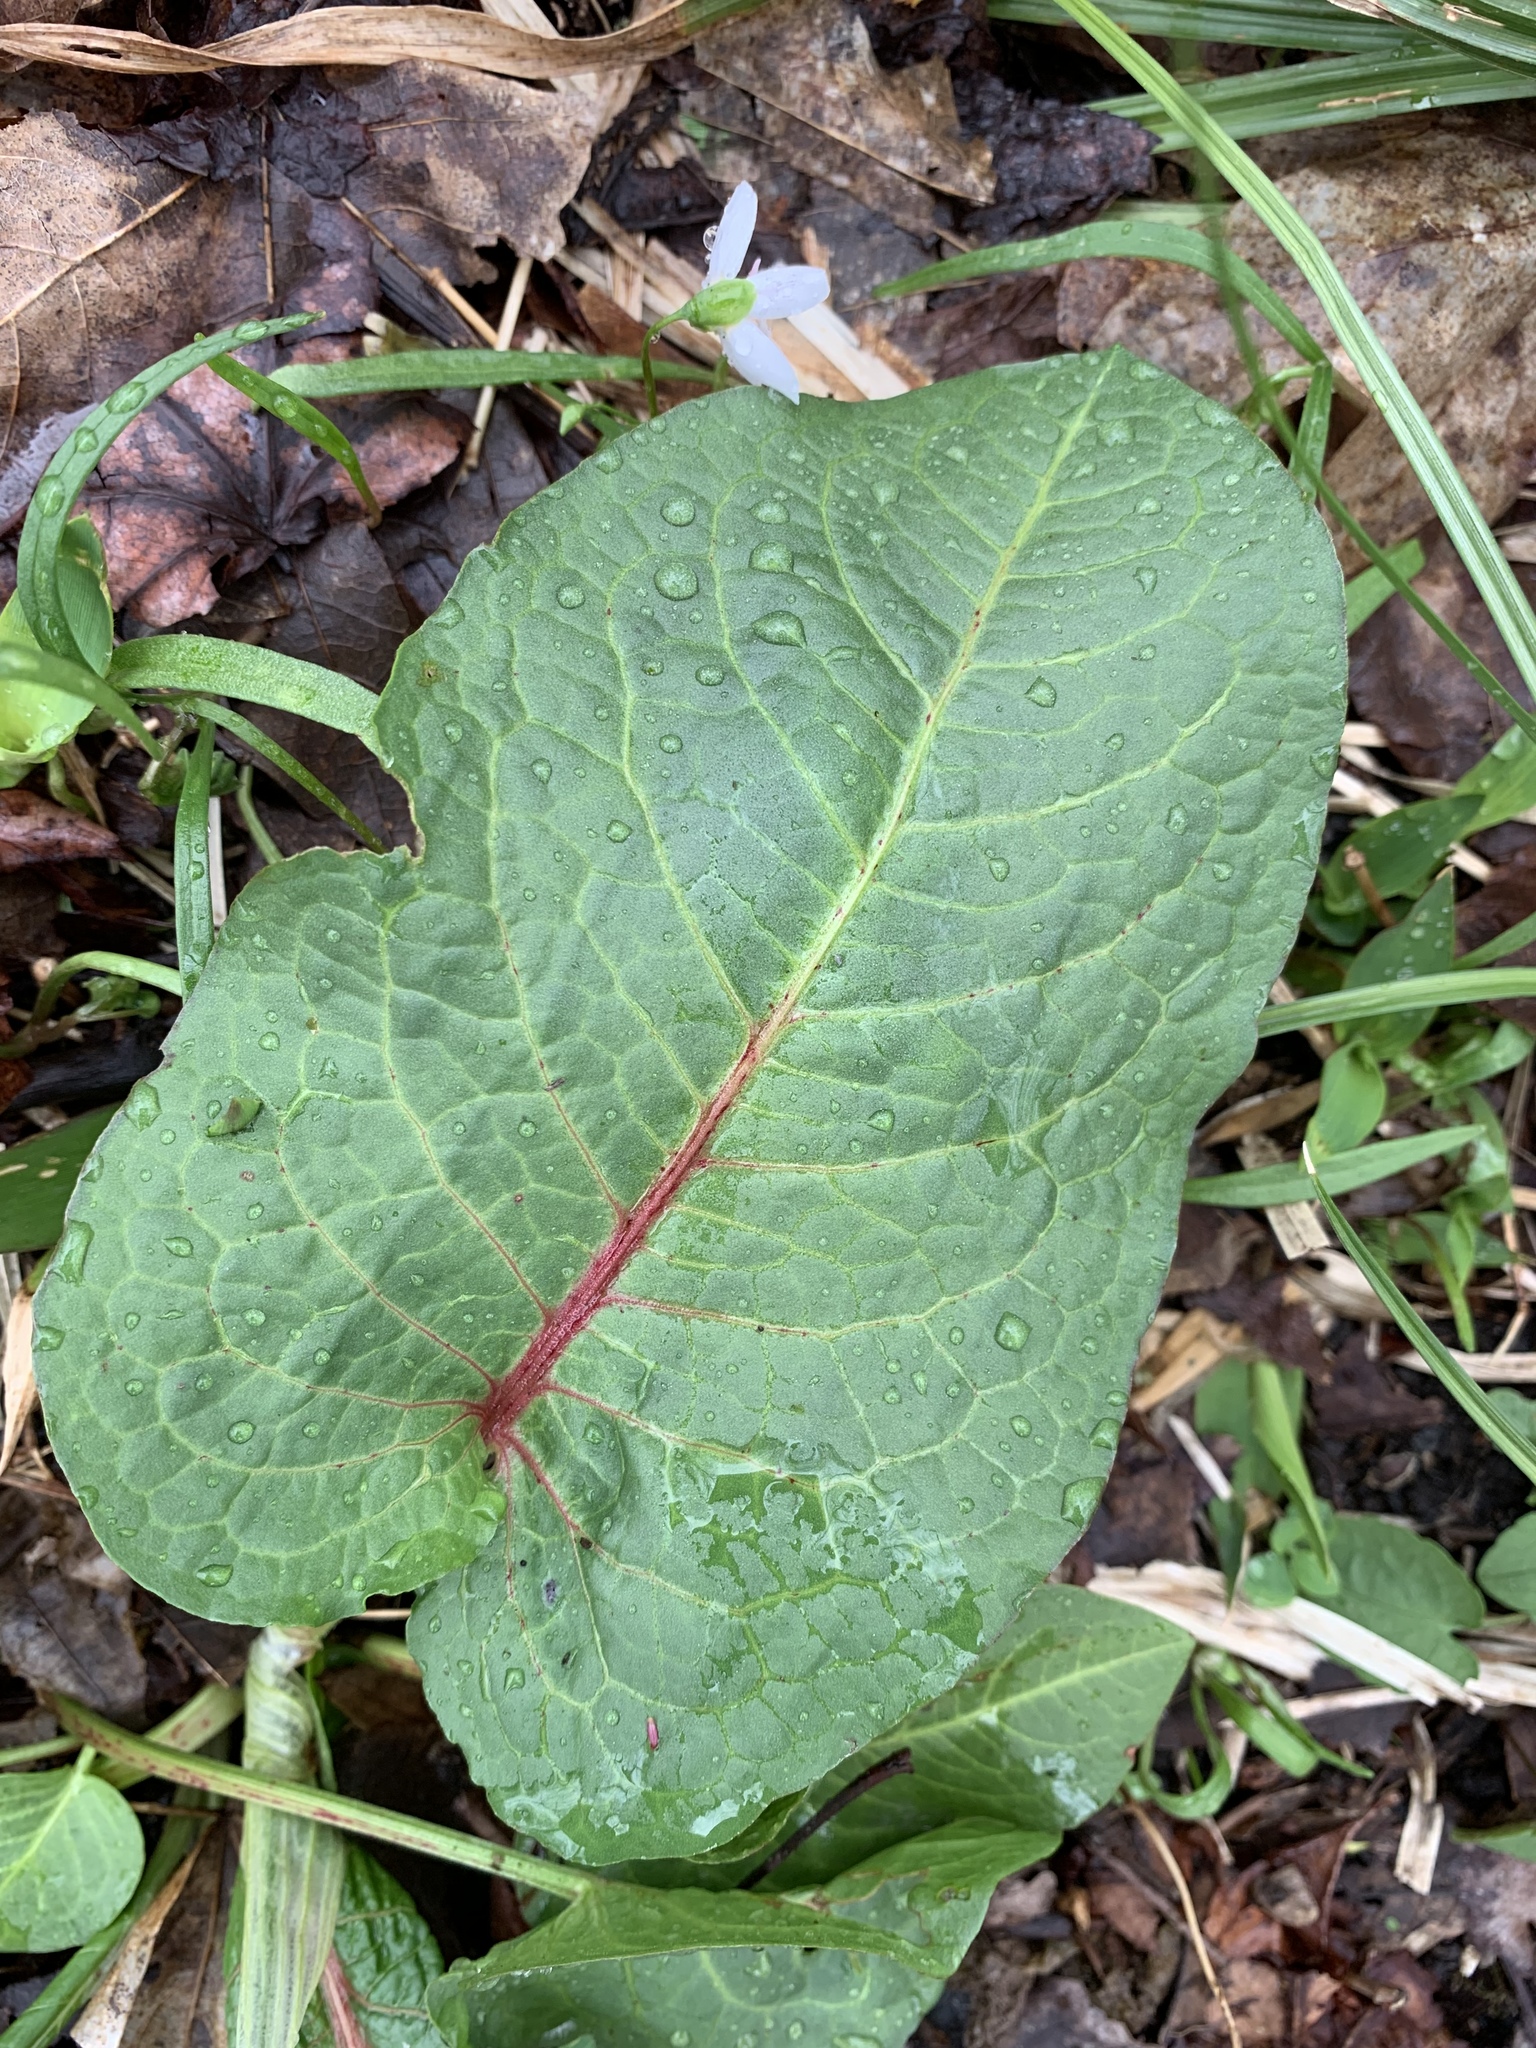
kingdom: Plantae
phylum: Tracheophyta
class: Magnoliopsida
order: Caryophyllales
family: Polygonaceae
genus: Rumex
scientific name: Rumex obtusifolius
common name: Bitter dock
